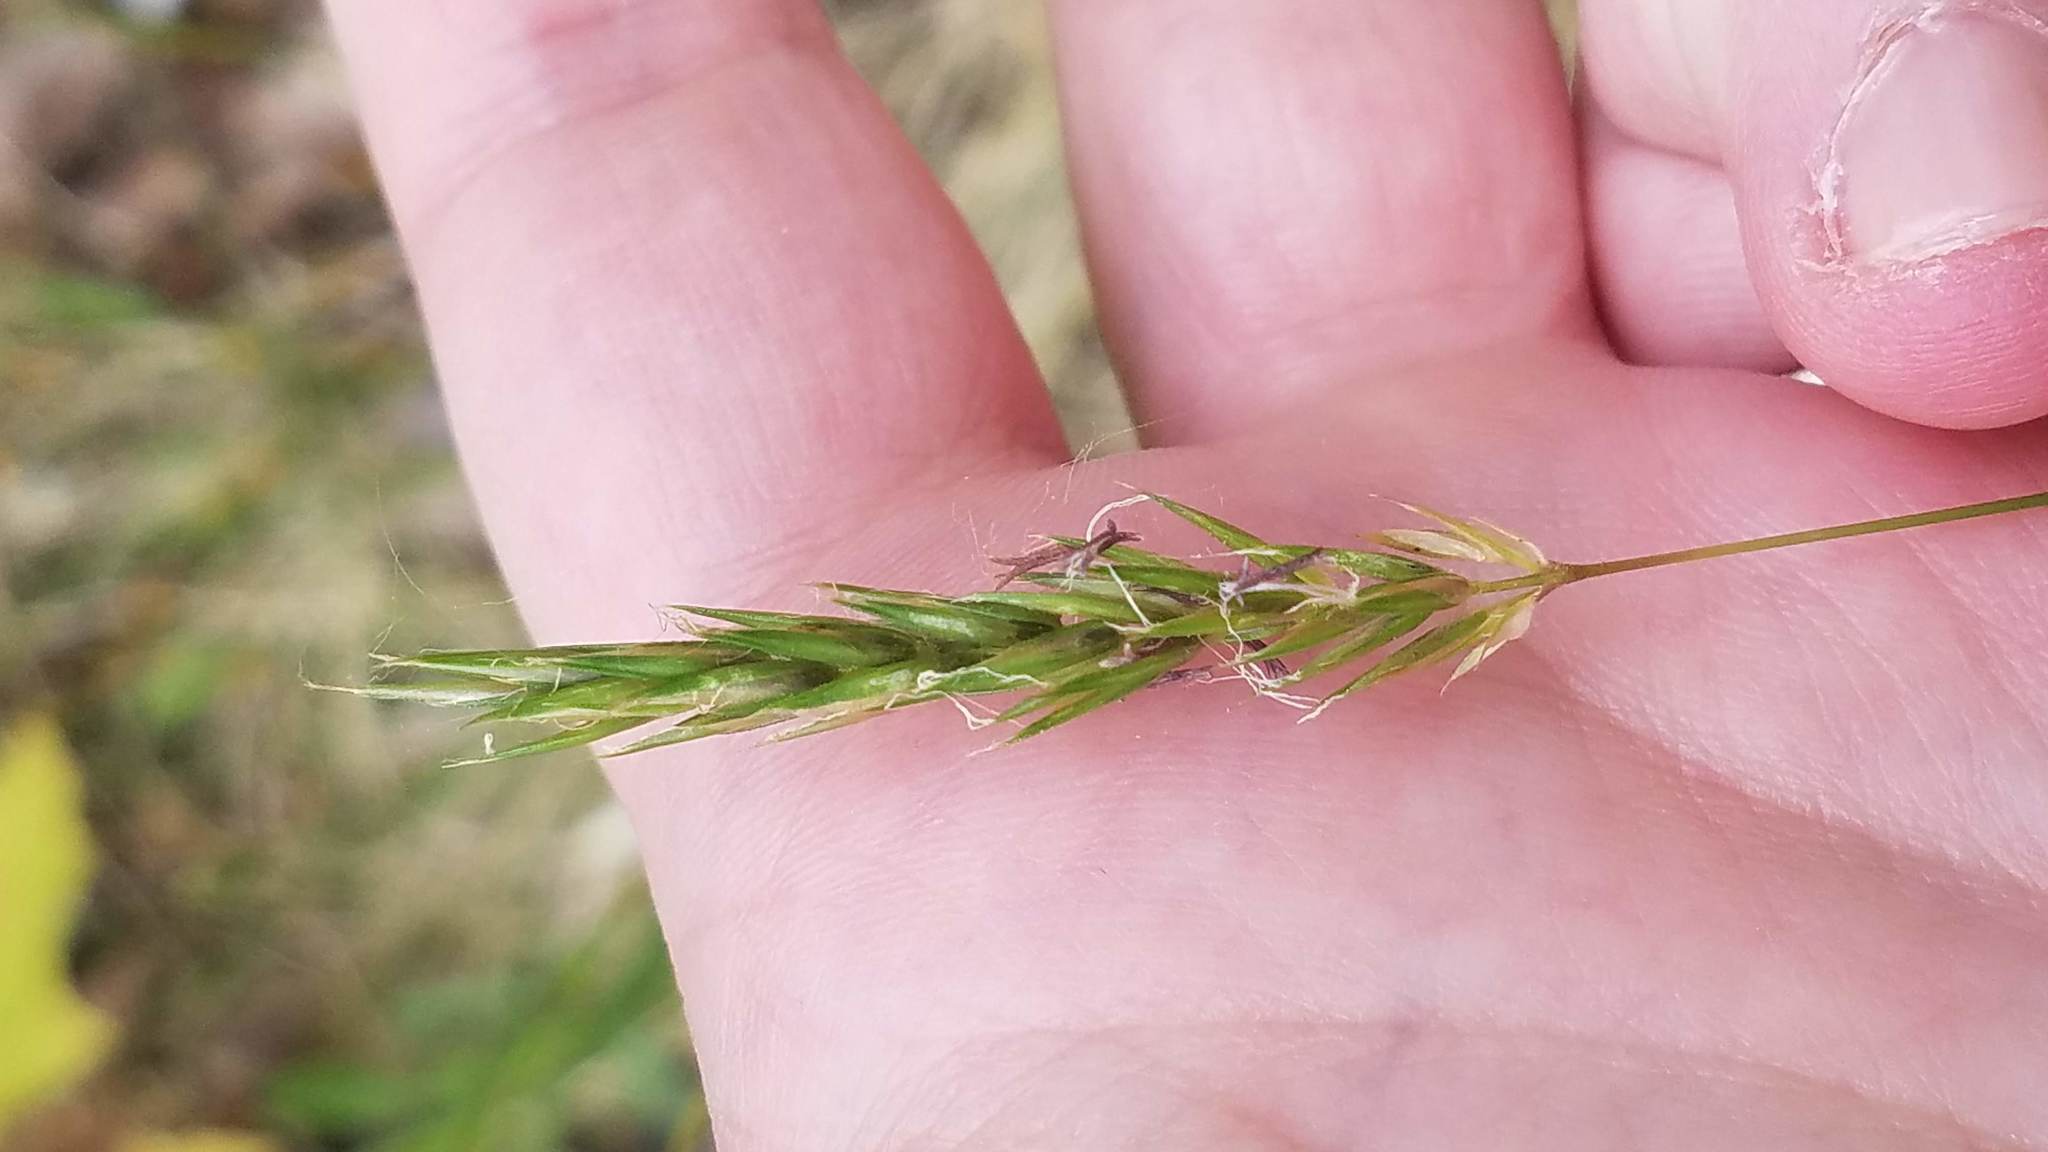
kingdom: Plantae
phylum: Tracheophyta
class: Liliopsida
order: Poales
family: Poaceae
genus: Anthoxanthum
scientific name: Anthoxanthum odoratum
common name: Sweet vernalgrass
